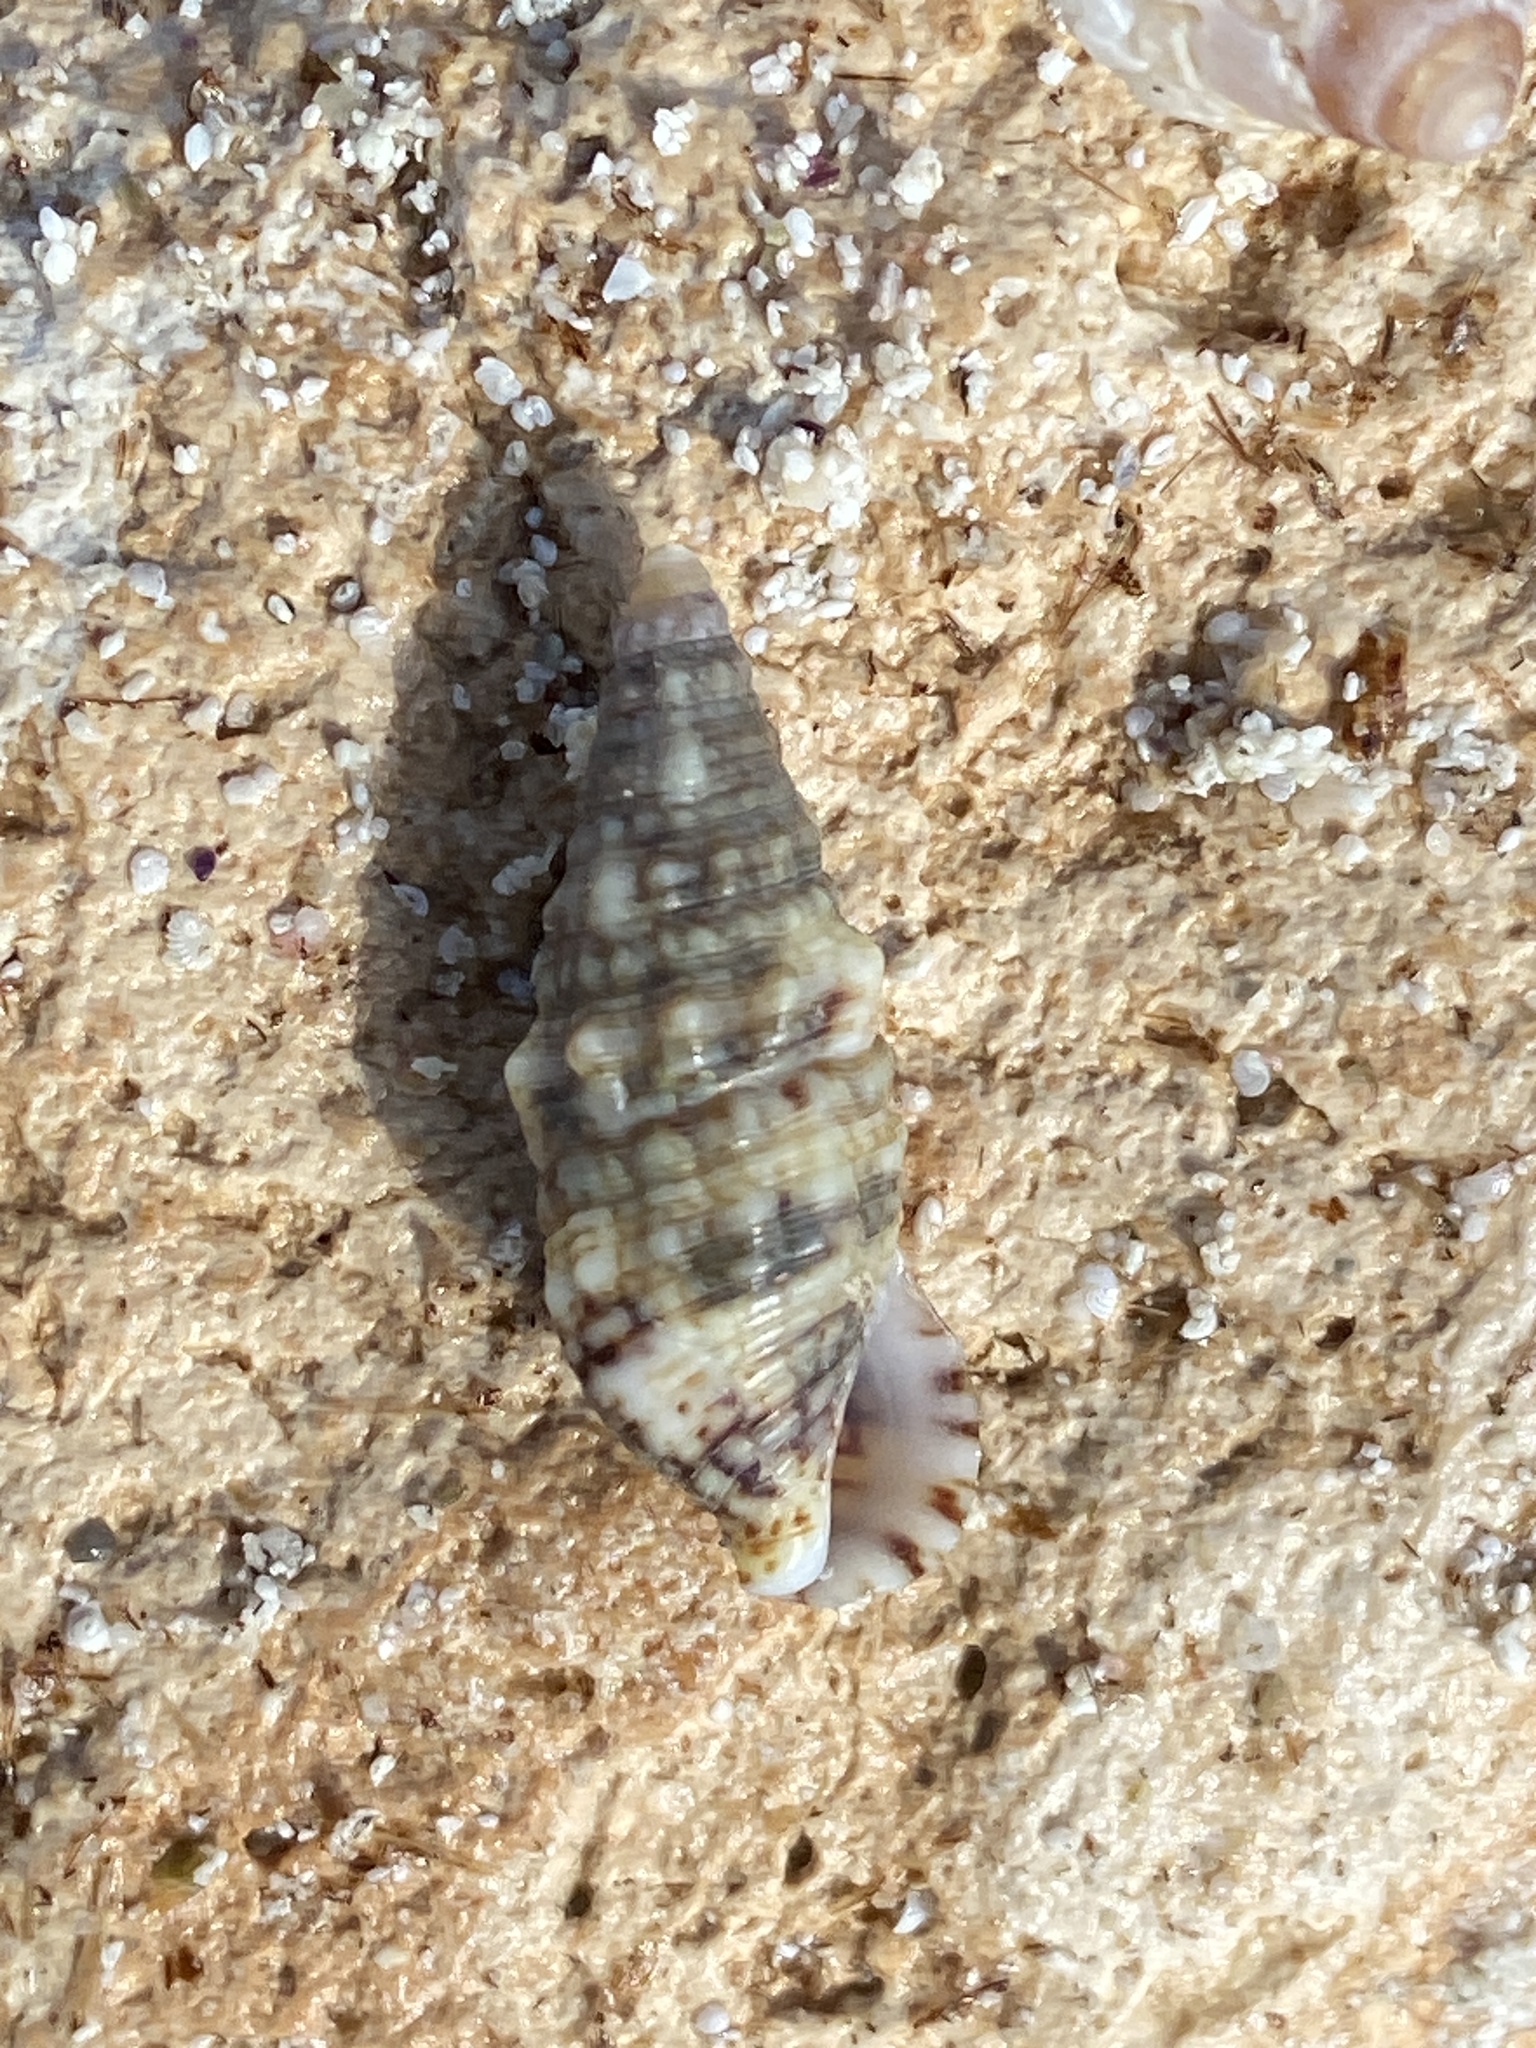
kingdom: Animalia
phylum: Mollusca
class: Gastropoda
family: Cerithiidae
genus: Cerithium
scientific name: Cerithium vulgatum
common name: European cerith
